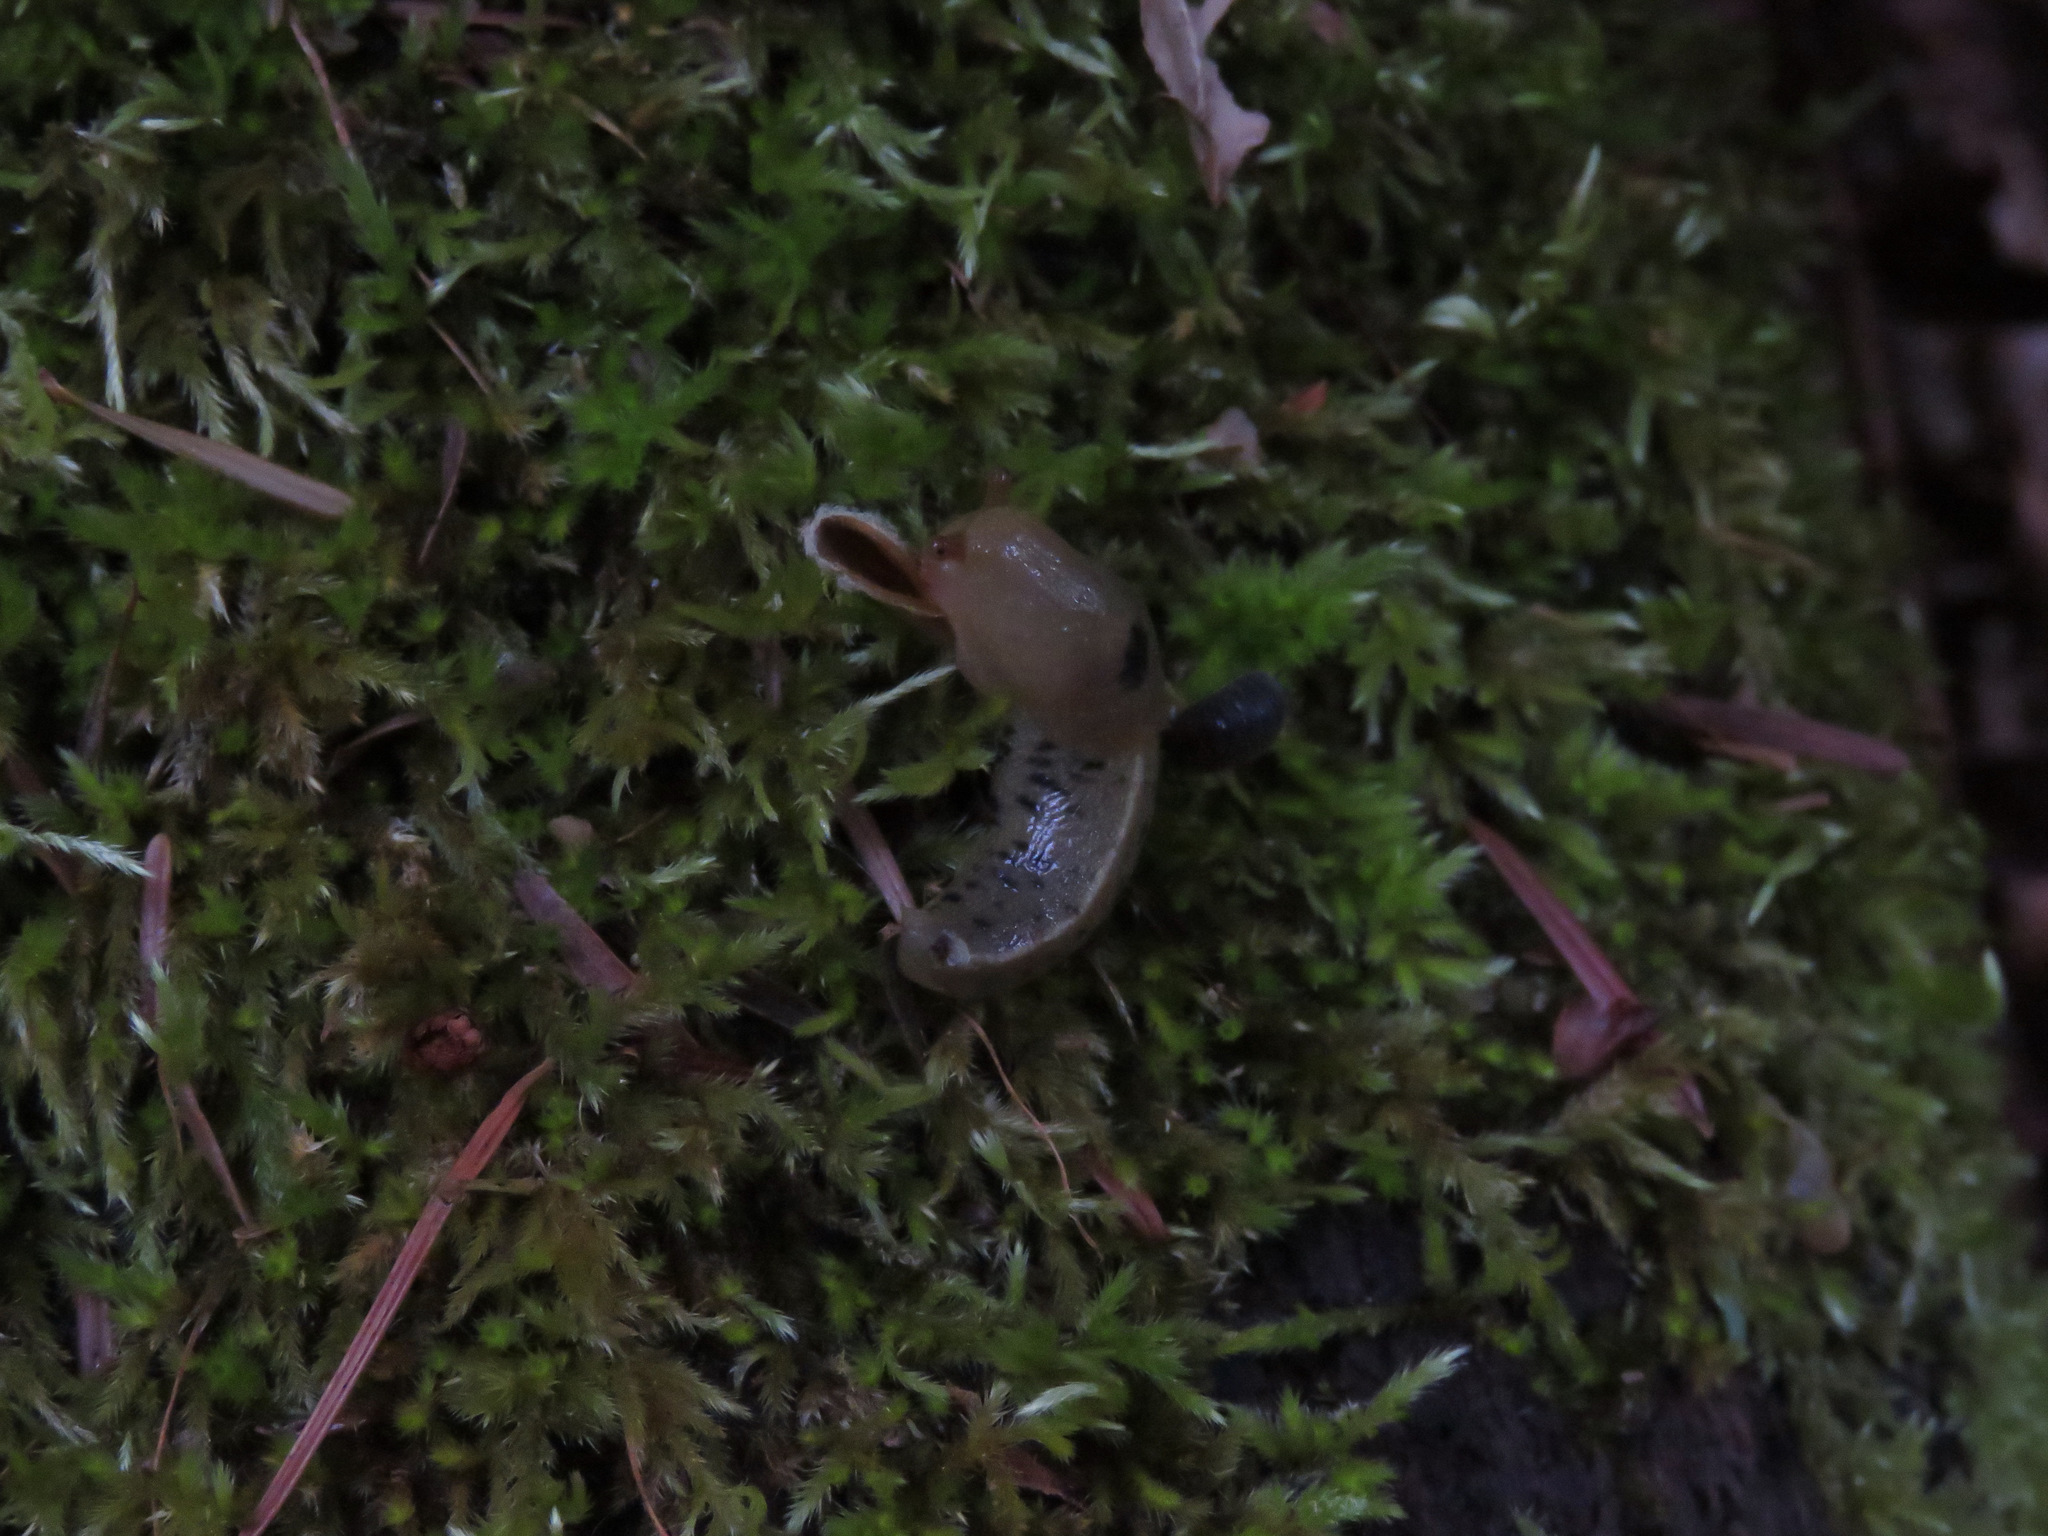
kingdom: Animalia
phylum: Mollusca
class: Gastropoda
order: Stylommatophora
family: Ariolimacidae
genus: Ariolimax
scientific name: Ariolimax columbianus
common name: Pacific banana slug
